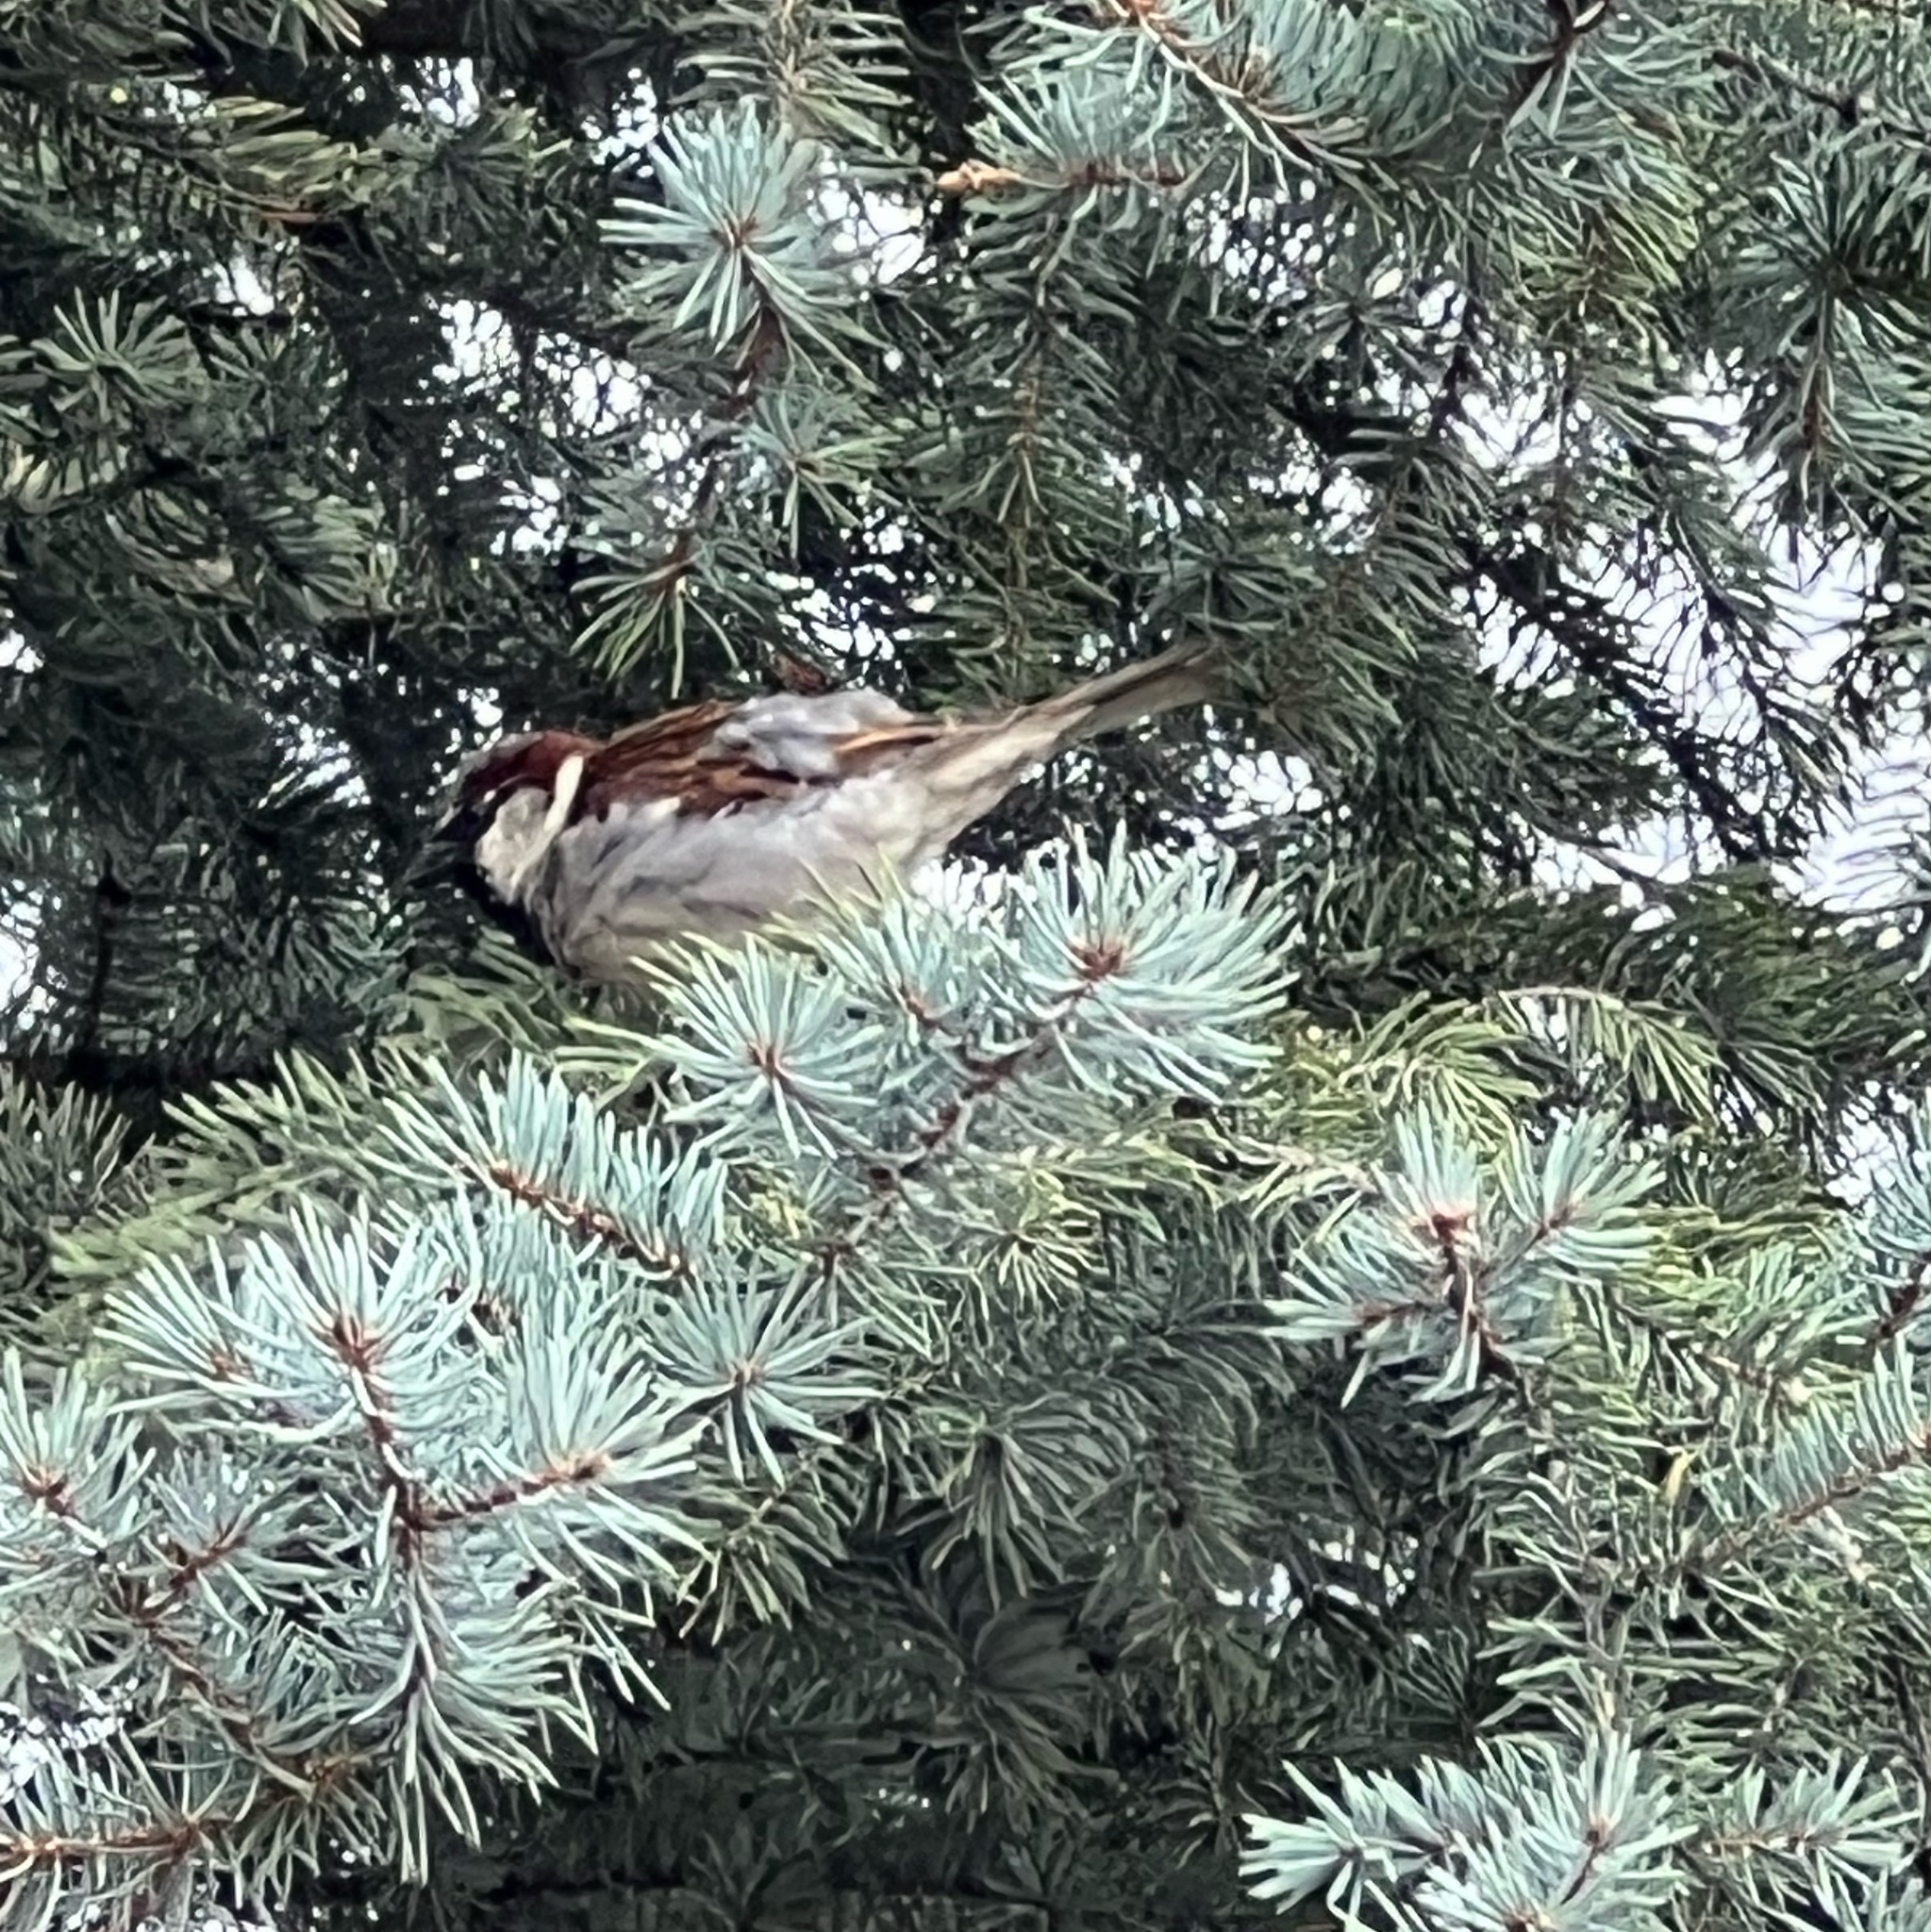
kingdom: Animalia
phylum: Chordata
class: Aves
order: Passeriformes
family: Passeridae
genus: Passer
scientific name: Passer domesticus
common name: House sparrow
